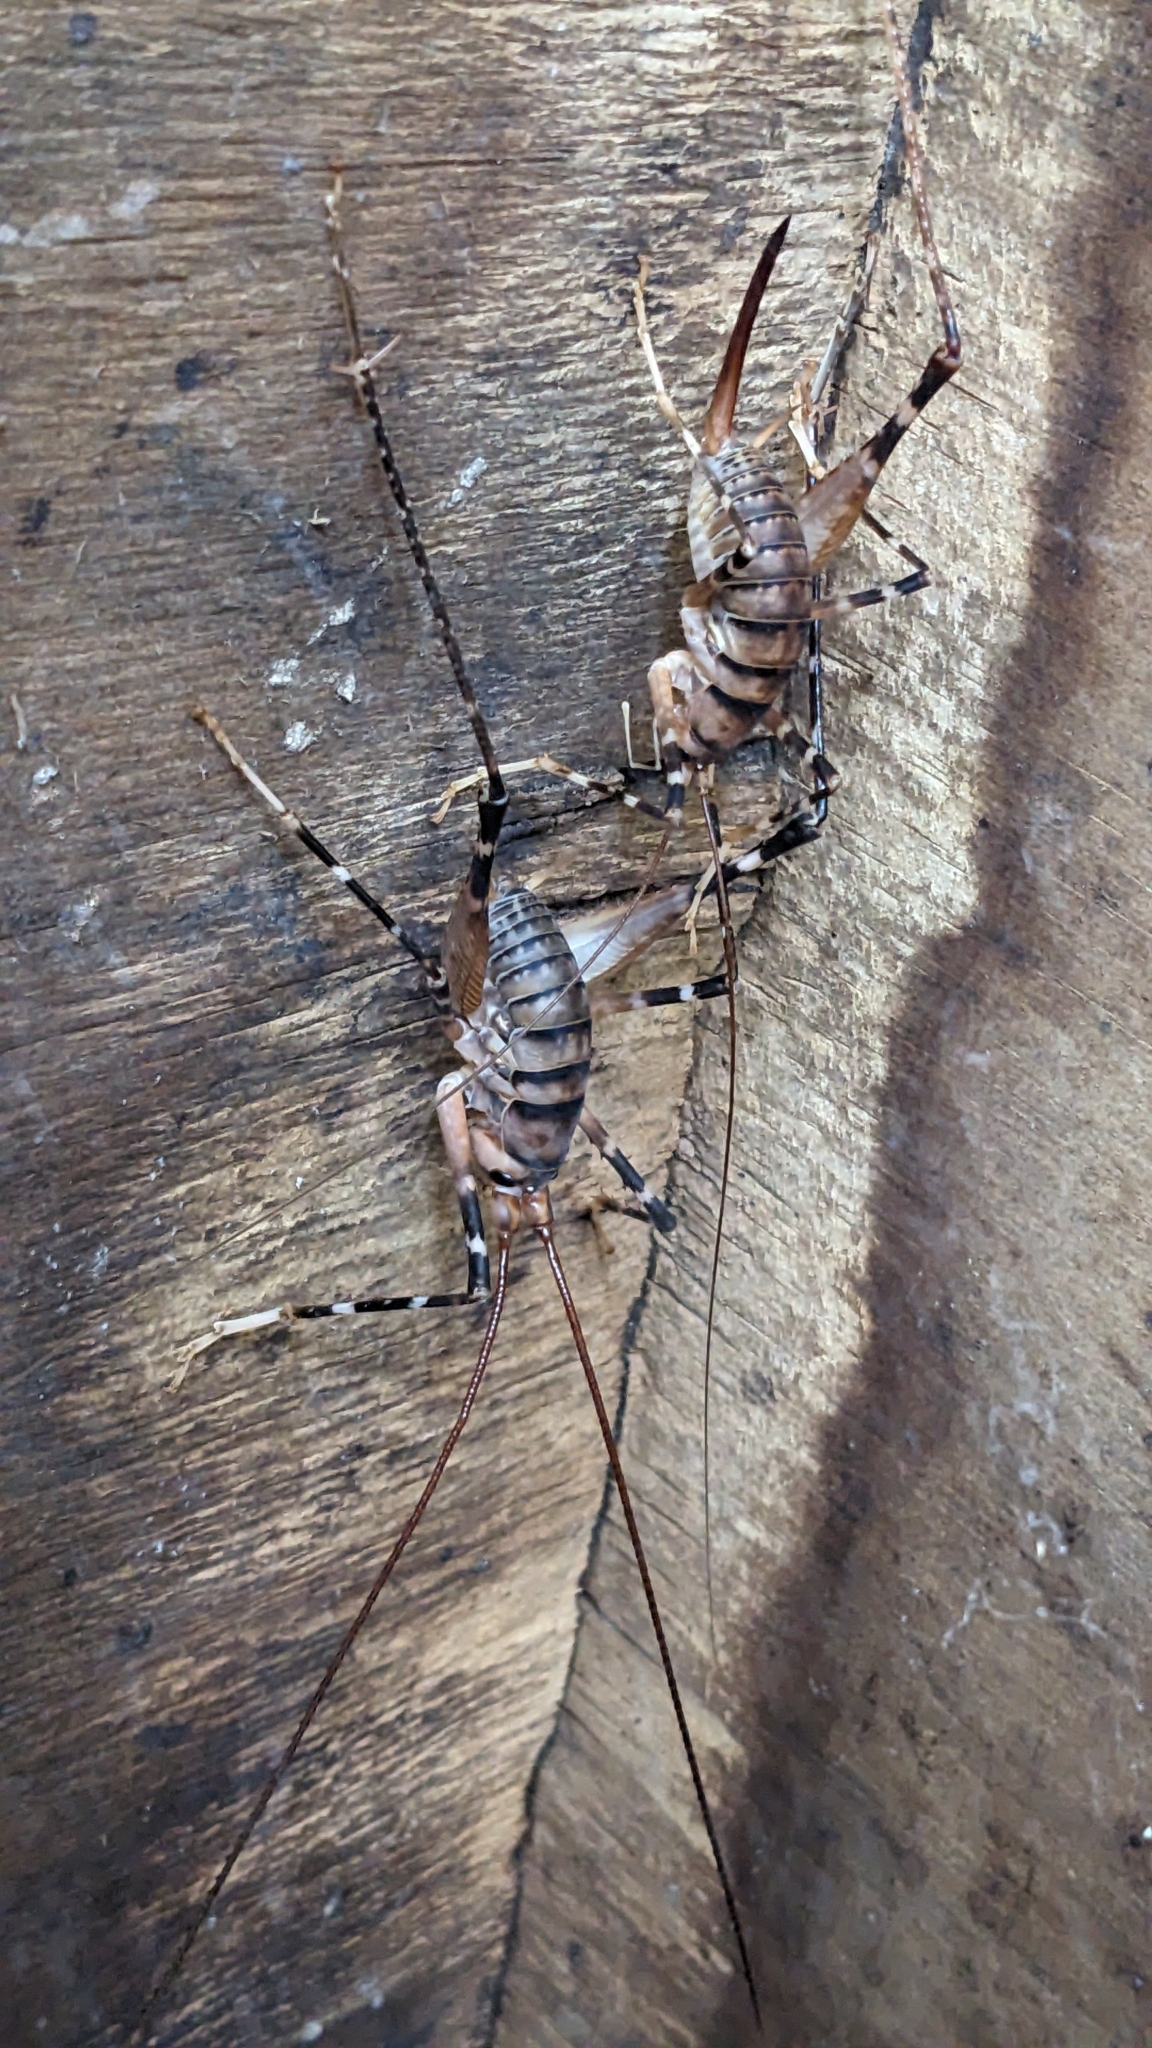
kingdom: Animalia
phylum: Arthropoda
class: Insecta
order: Orthoptera
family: Rhaphidophoridae
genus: Pachyrhamma
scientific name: Pachyrhamma edwardsii
